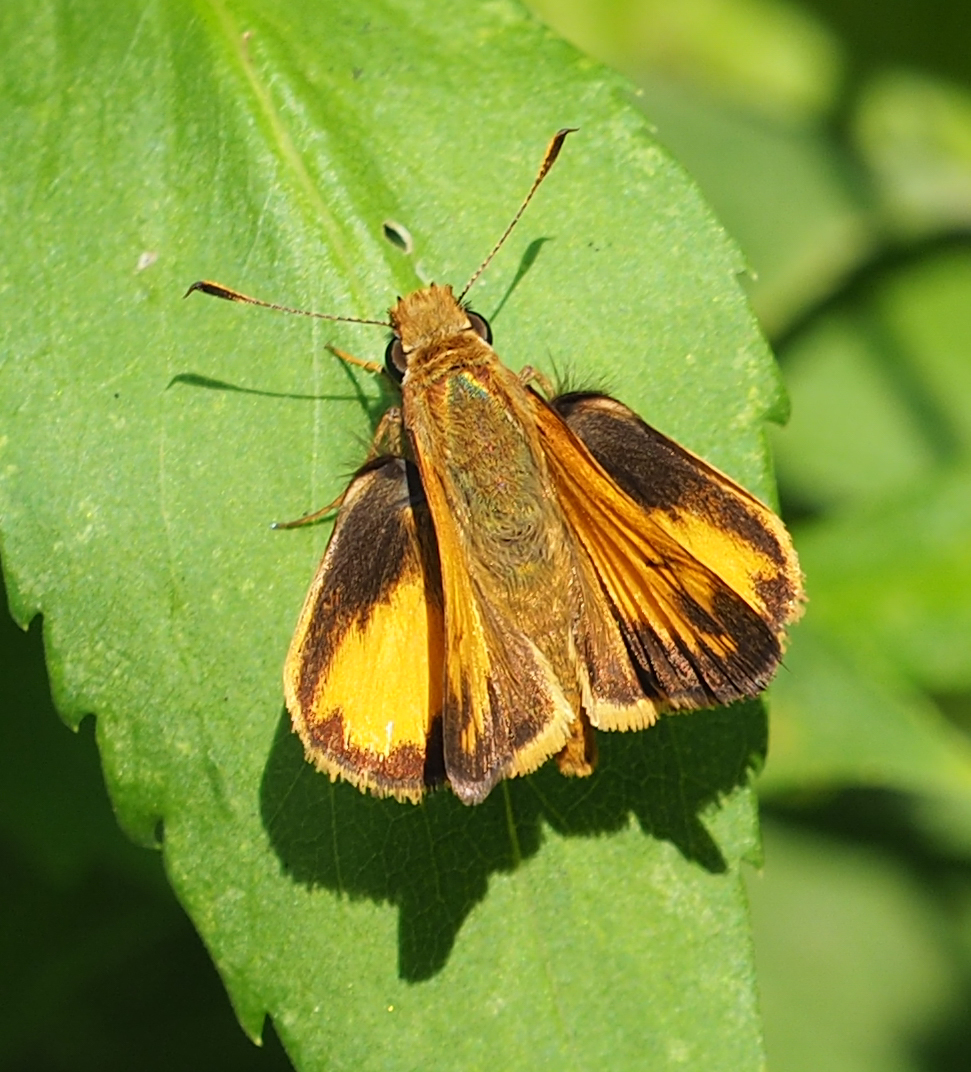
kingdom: Animalia
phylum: Arthropoda
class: Insecta
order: Lepidoptera
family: Hesperiidae
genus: Lon
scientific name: Lon zabulon
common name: Zabulon skipper
